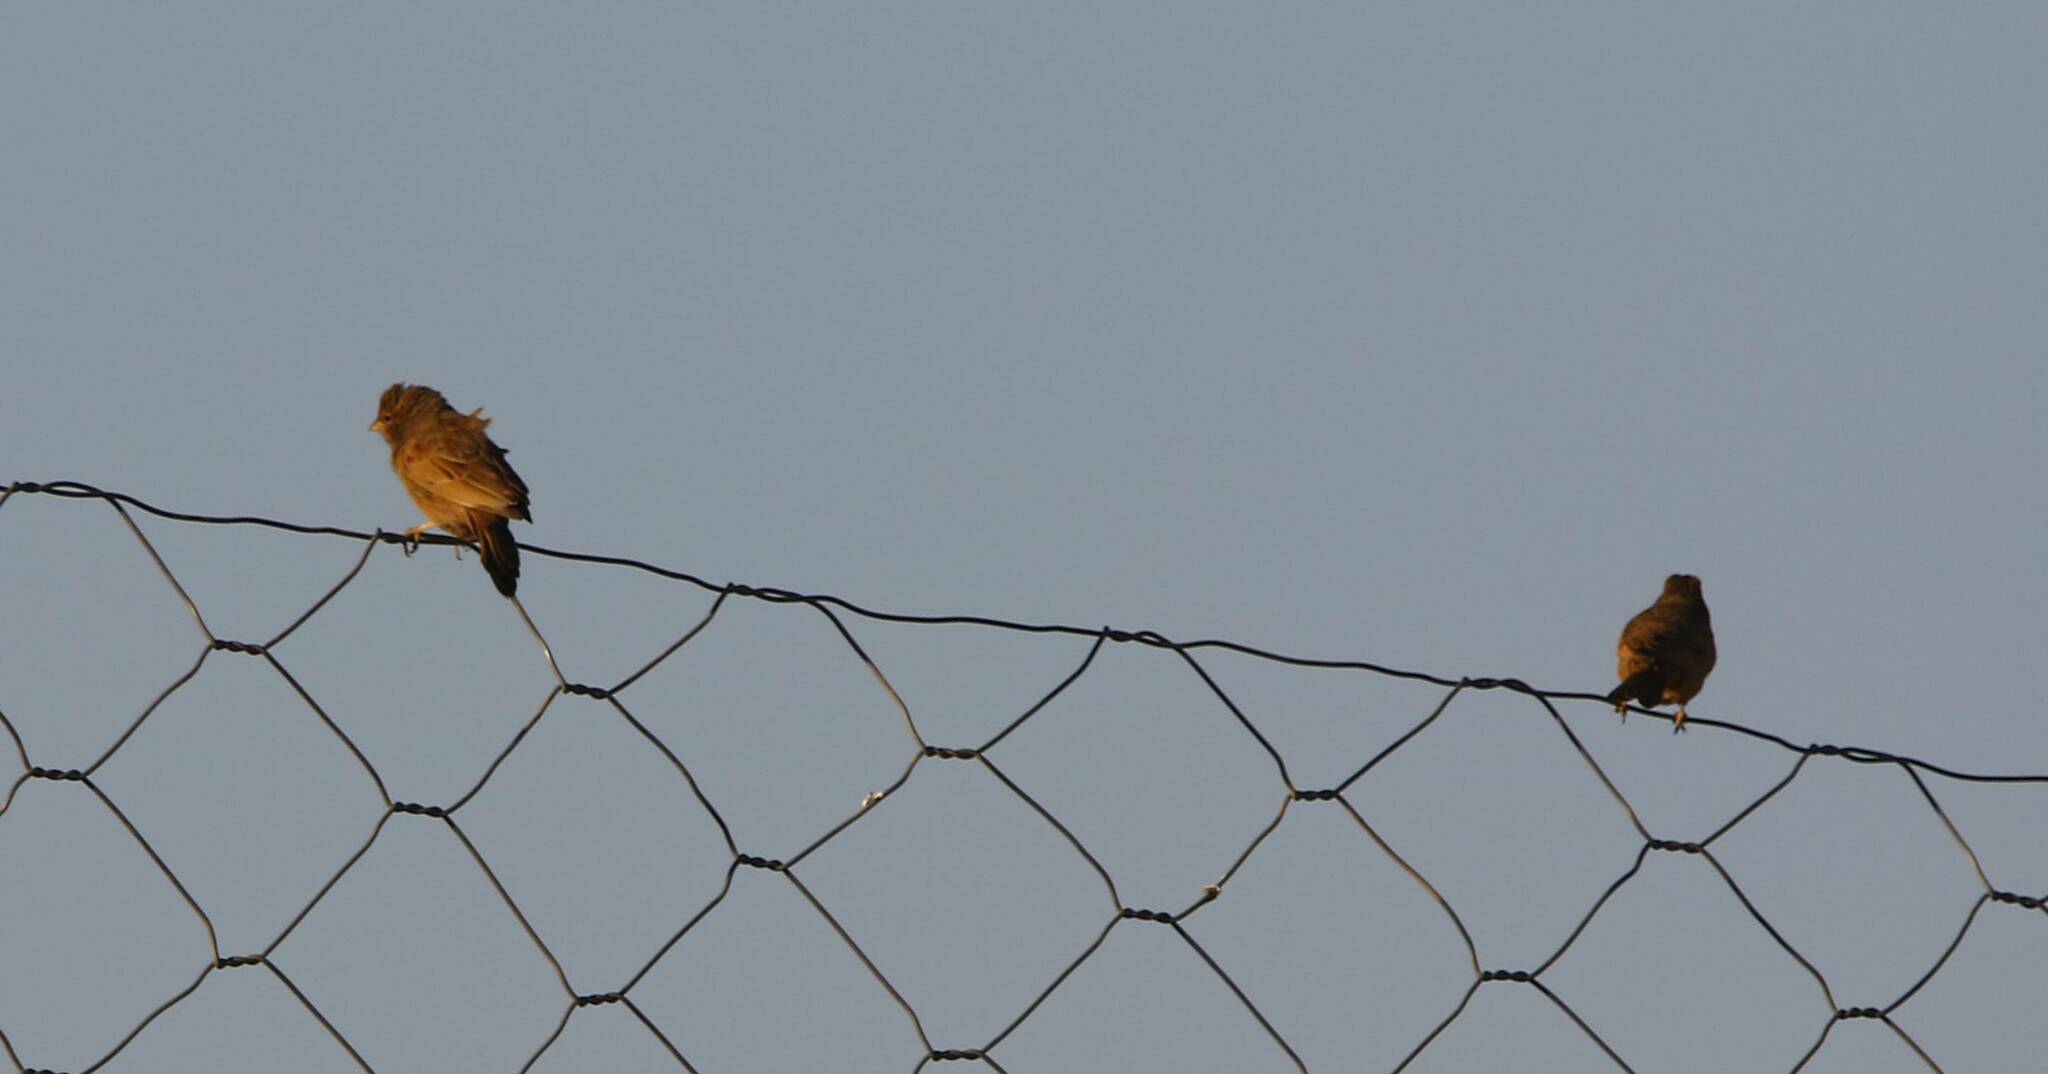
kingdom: Animalia
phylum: Chordata
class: Aves
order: Passeriformes
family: Emberizidae
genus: Emberiza
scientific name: Emberiza sahari
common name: House bunting
